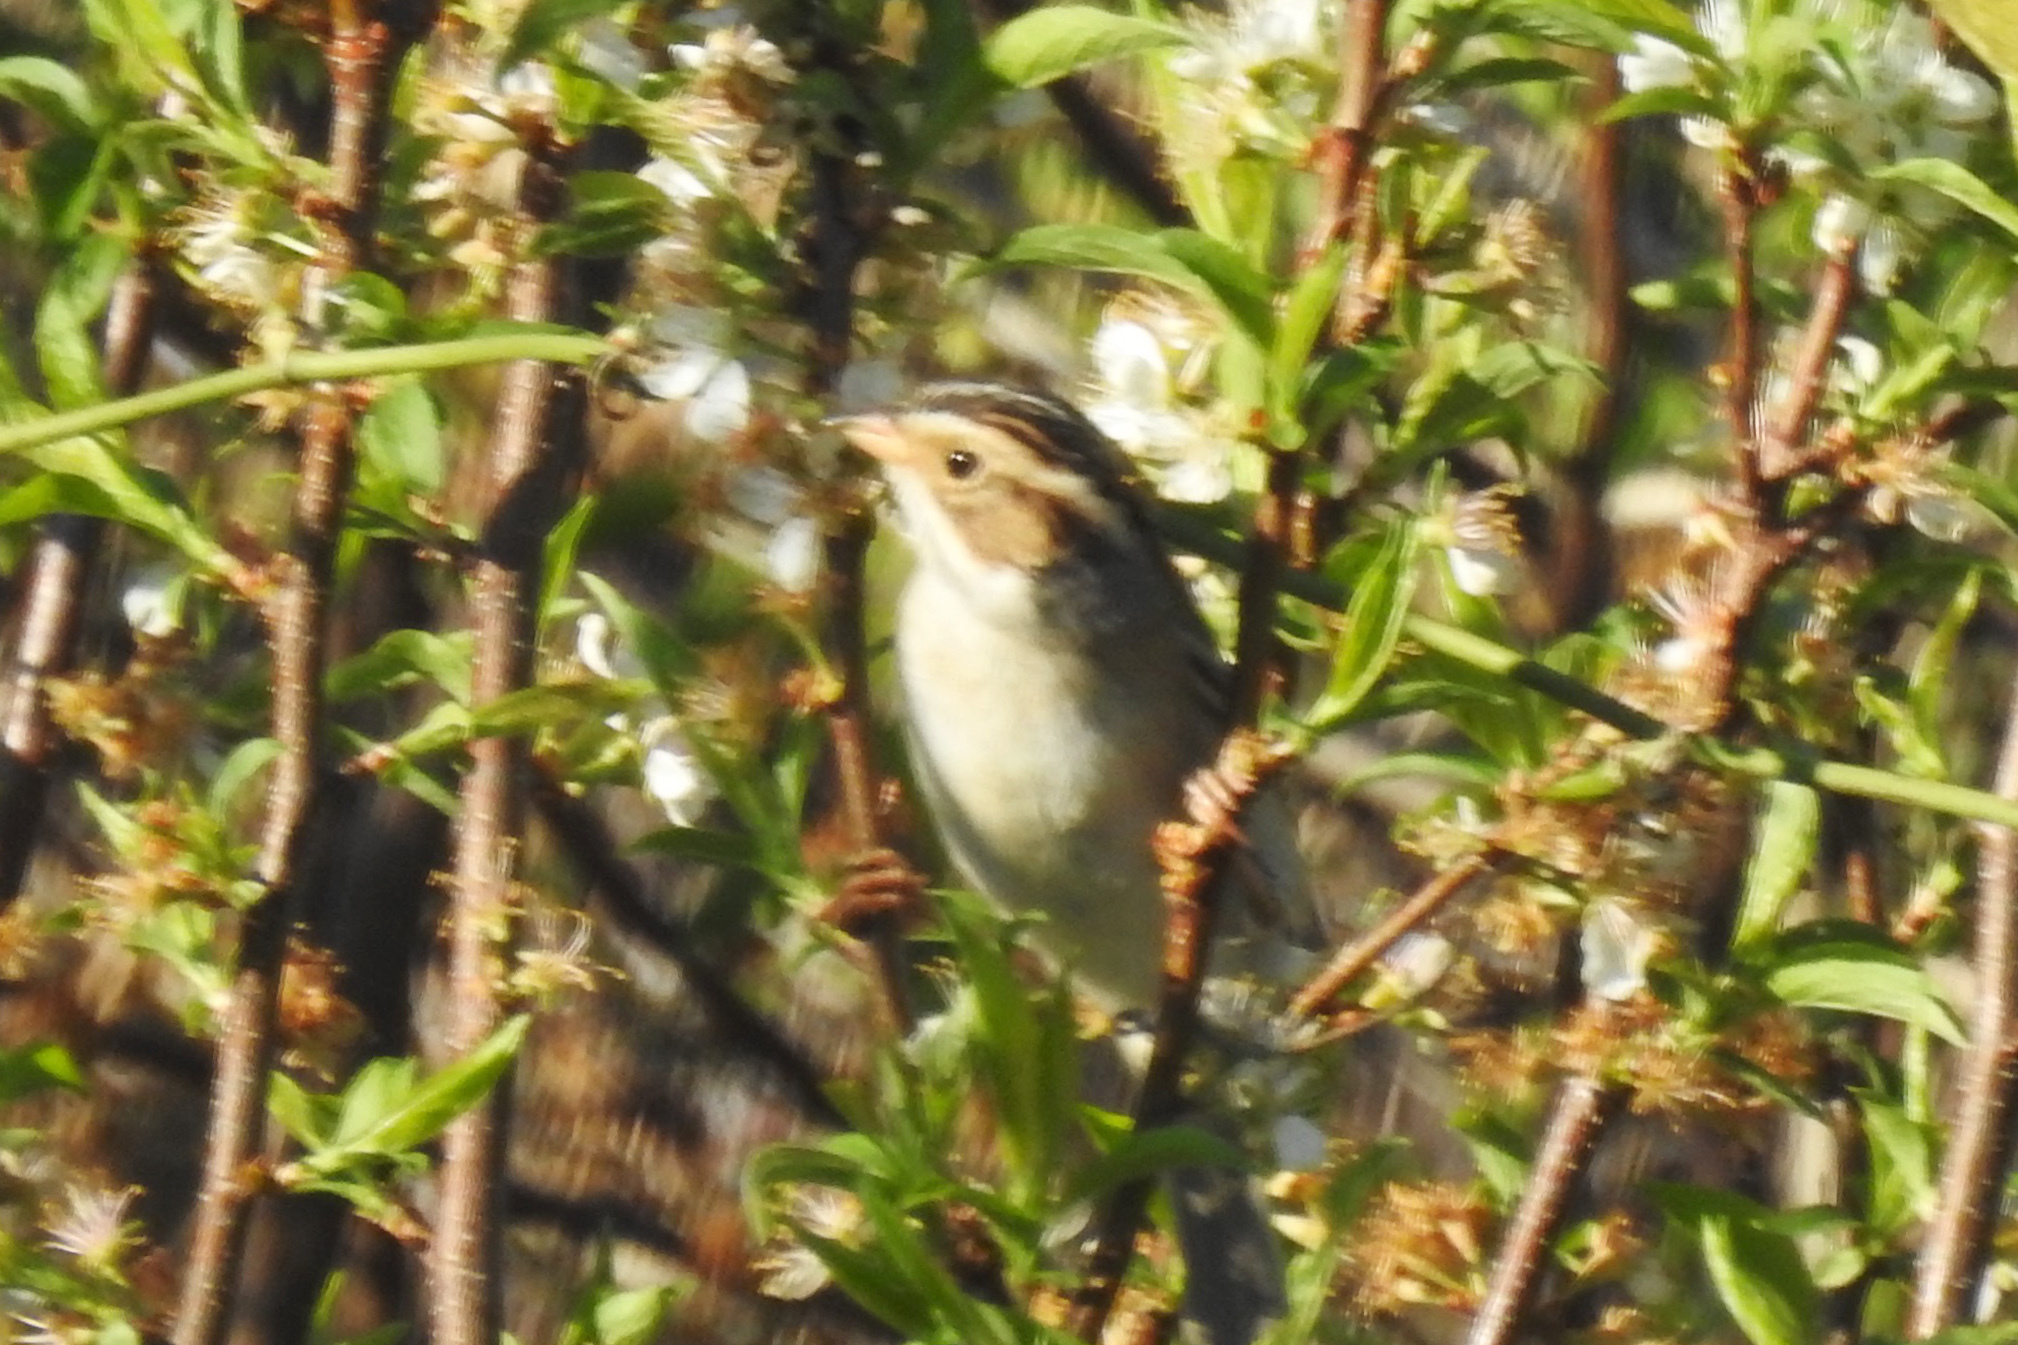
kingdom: Animalia
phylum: Chordata
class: Aves
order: Passeriformes
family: Passerellidae
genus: Spizella
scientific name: Spizella pallida
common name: Clay-colored sparrow
